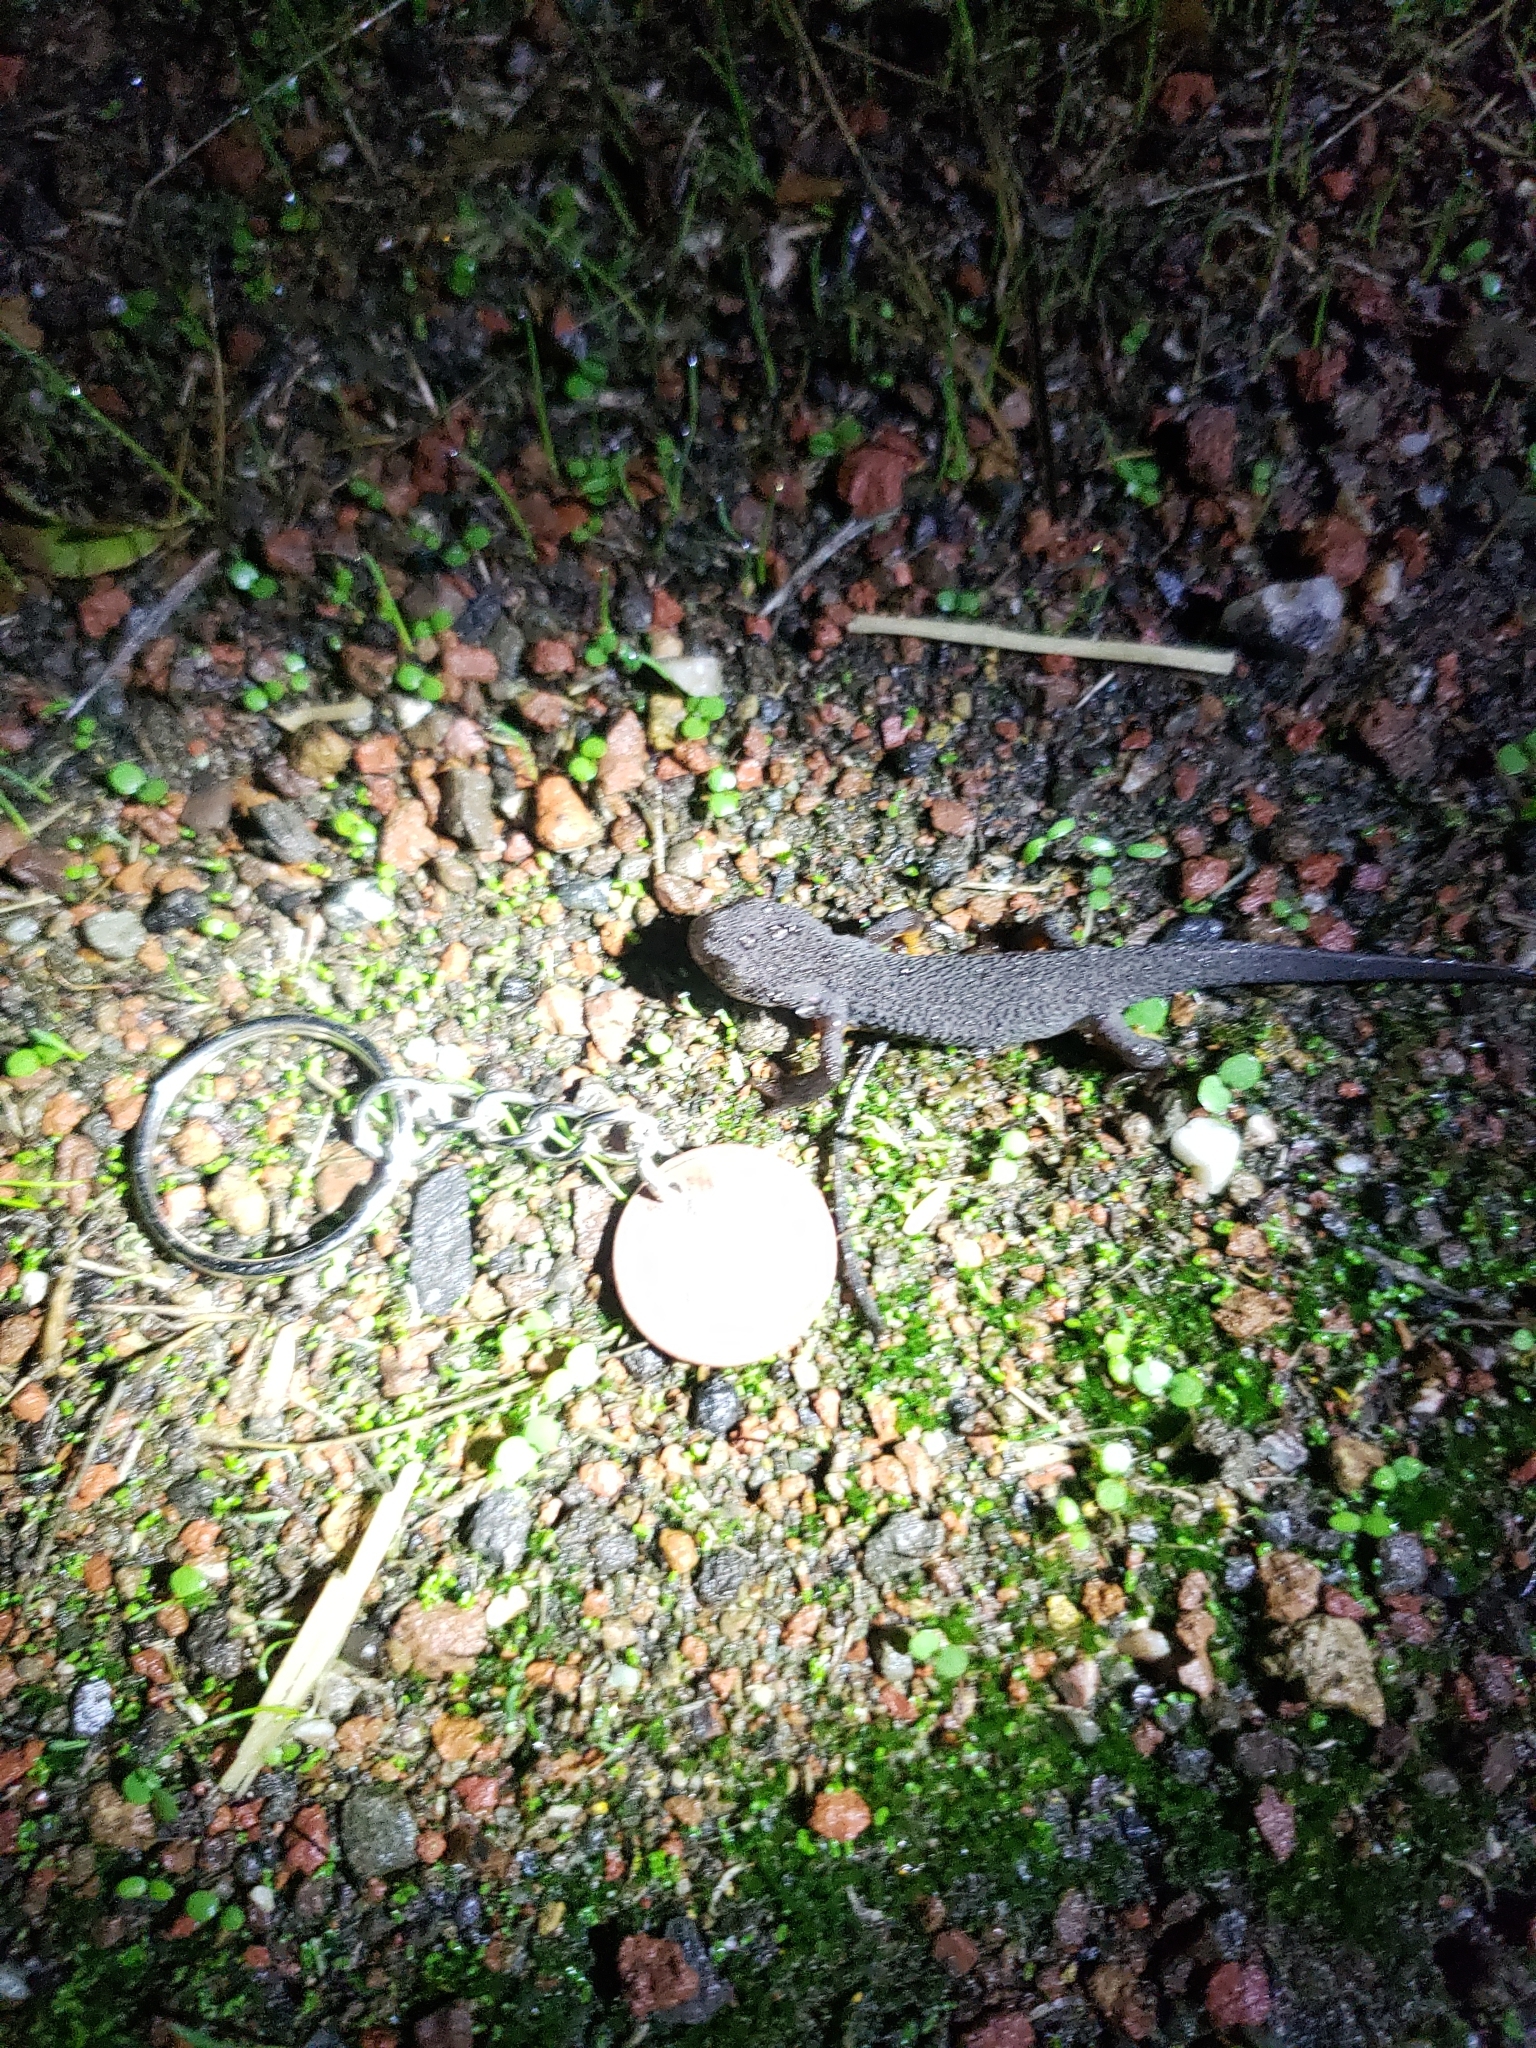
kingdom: Animalia
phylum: Chordata
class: Amphibia
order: Caudata
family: Salamandridae
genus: Taricha
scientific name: Taricha granulosa
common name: Roughskin newt
